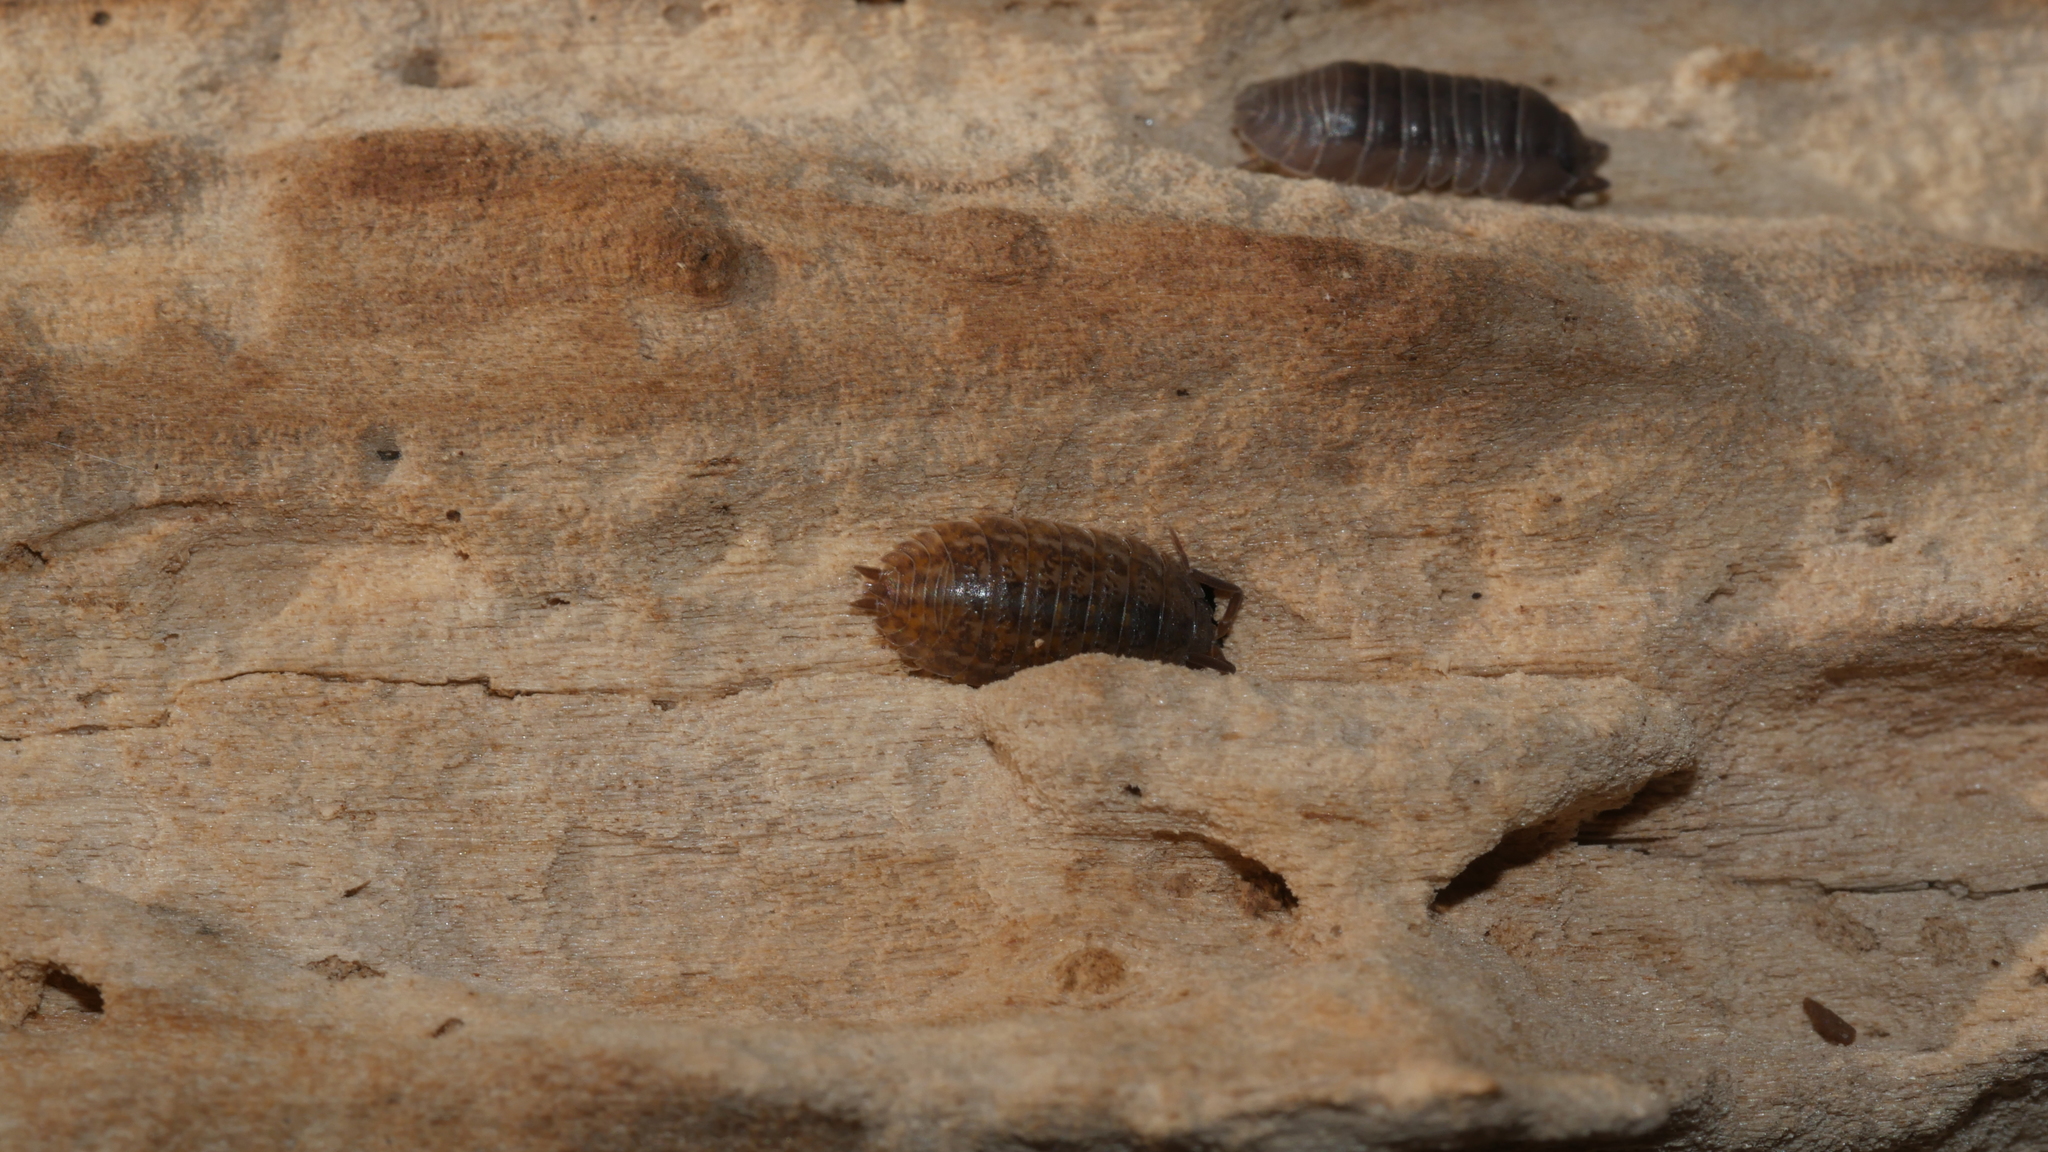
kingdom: Animalia
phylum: Arthropoda
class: Malacostraca
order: Isopoda
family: Trachelipodidae
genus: Trachelipus
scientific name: Trachelipus rathkii
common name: Isopod
